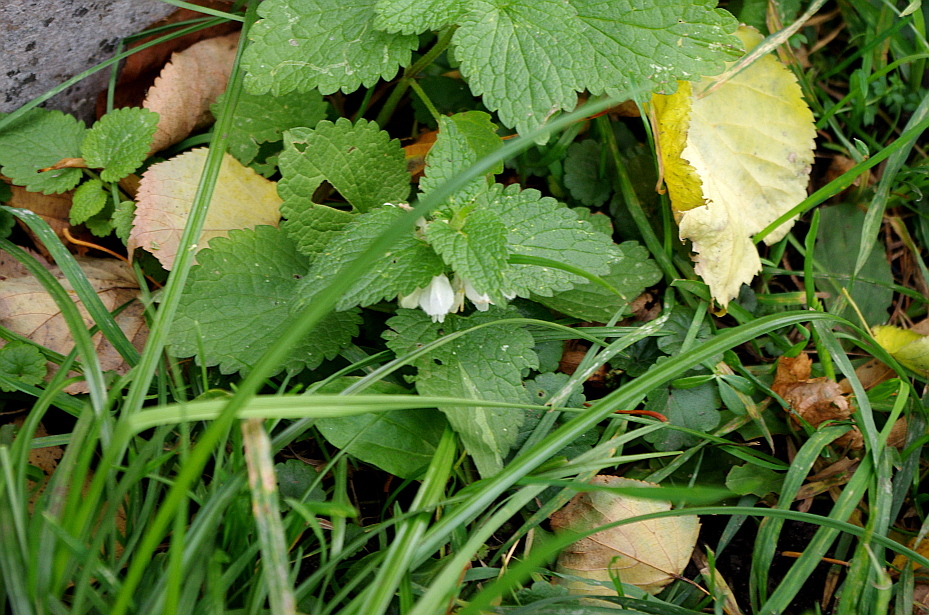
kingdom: Plantae
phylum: Tracheophyta
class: Magnoliopsida
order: Lamiales
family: Lamiaceae
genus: Lamium
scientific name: Lamium album
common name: White dead-nettle
